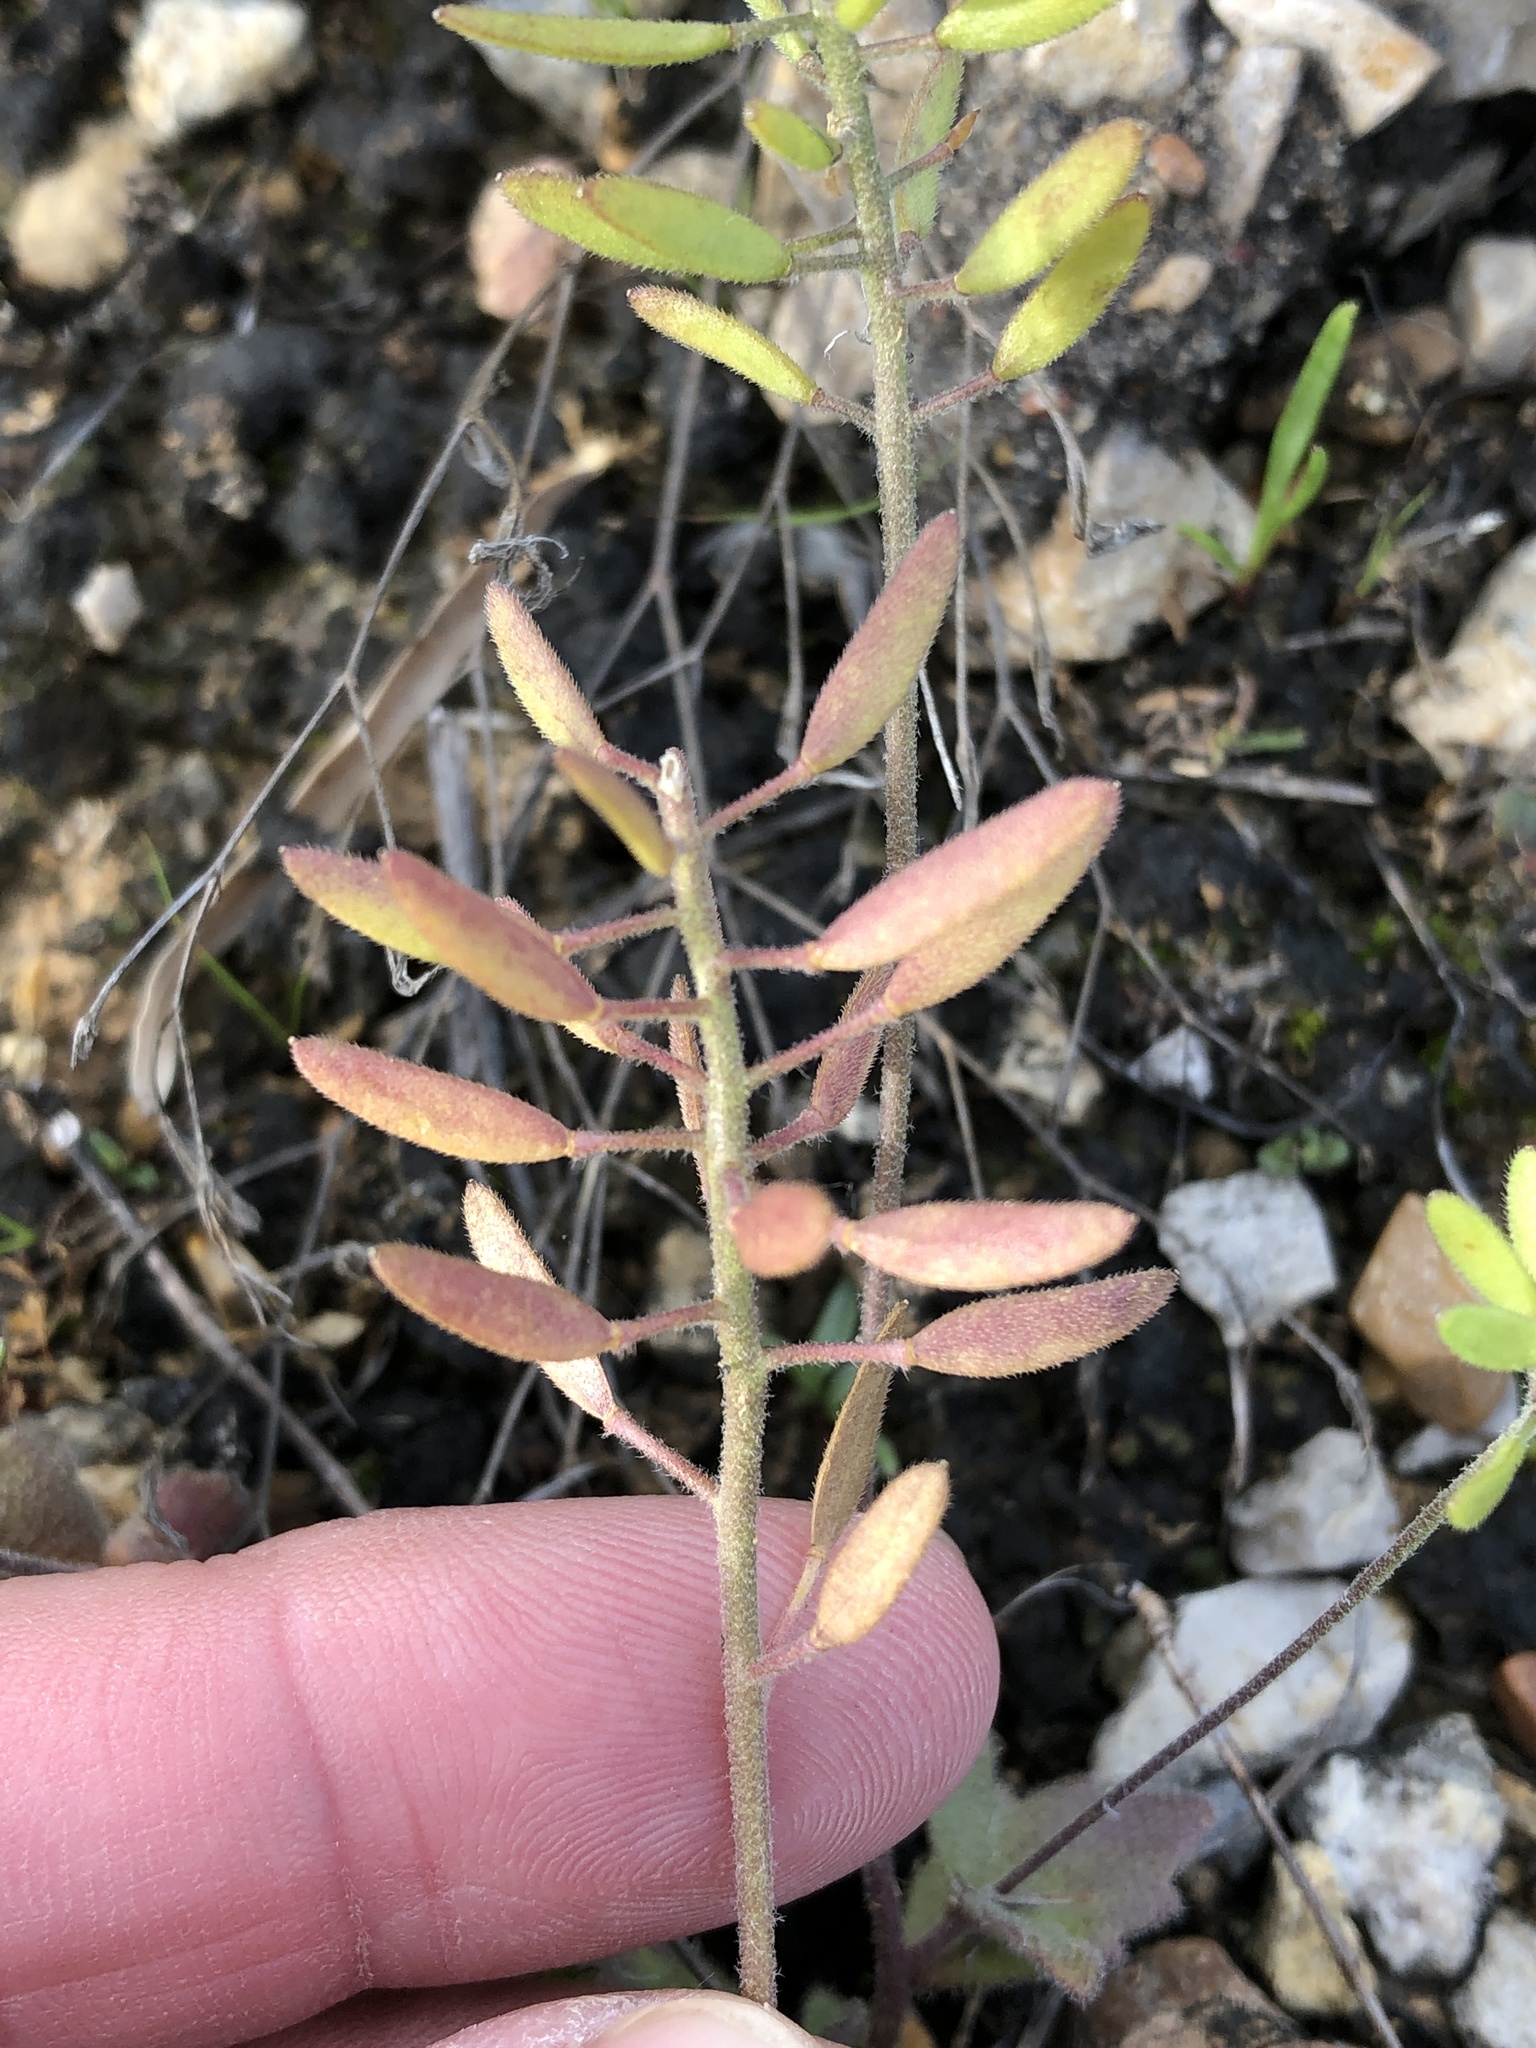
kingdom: Plantae
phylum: Tracheophyta
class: Magnoliopsida
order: Brassicales
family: Brassicaceae
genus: Tomostima
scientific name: Tomostima cuneifolia
